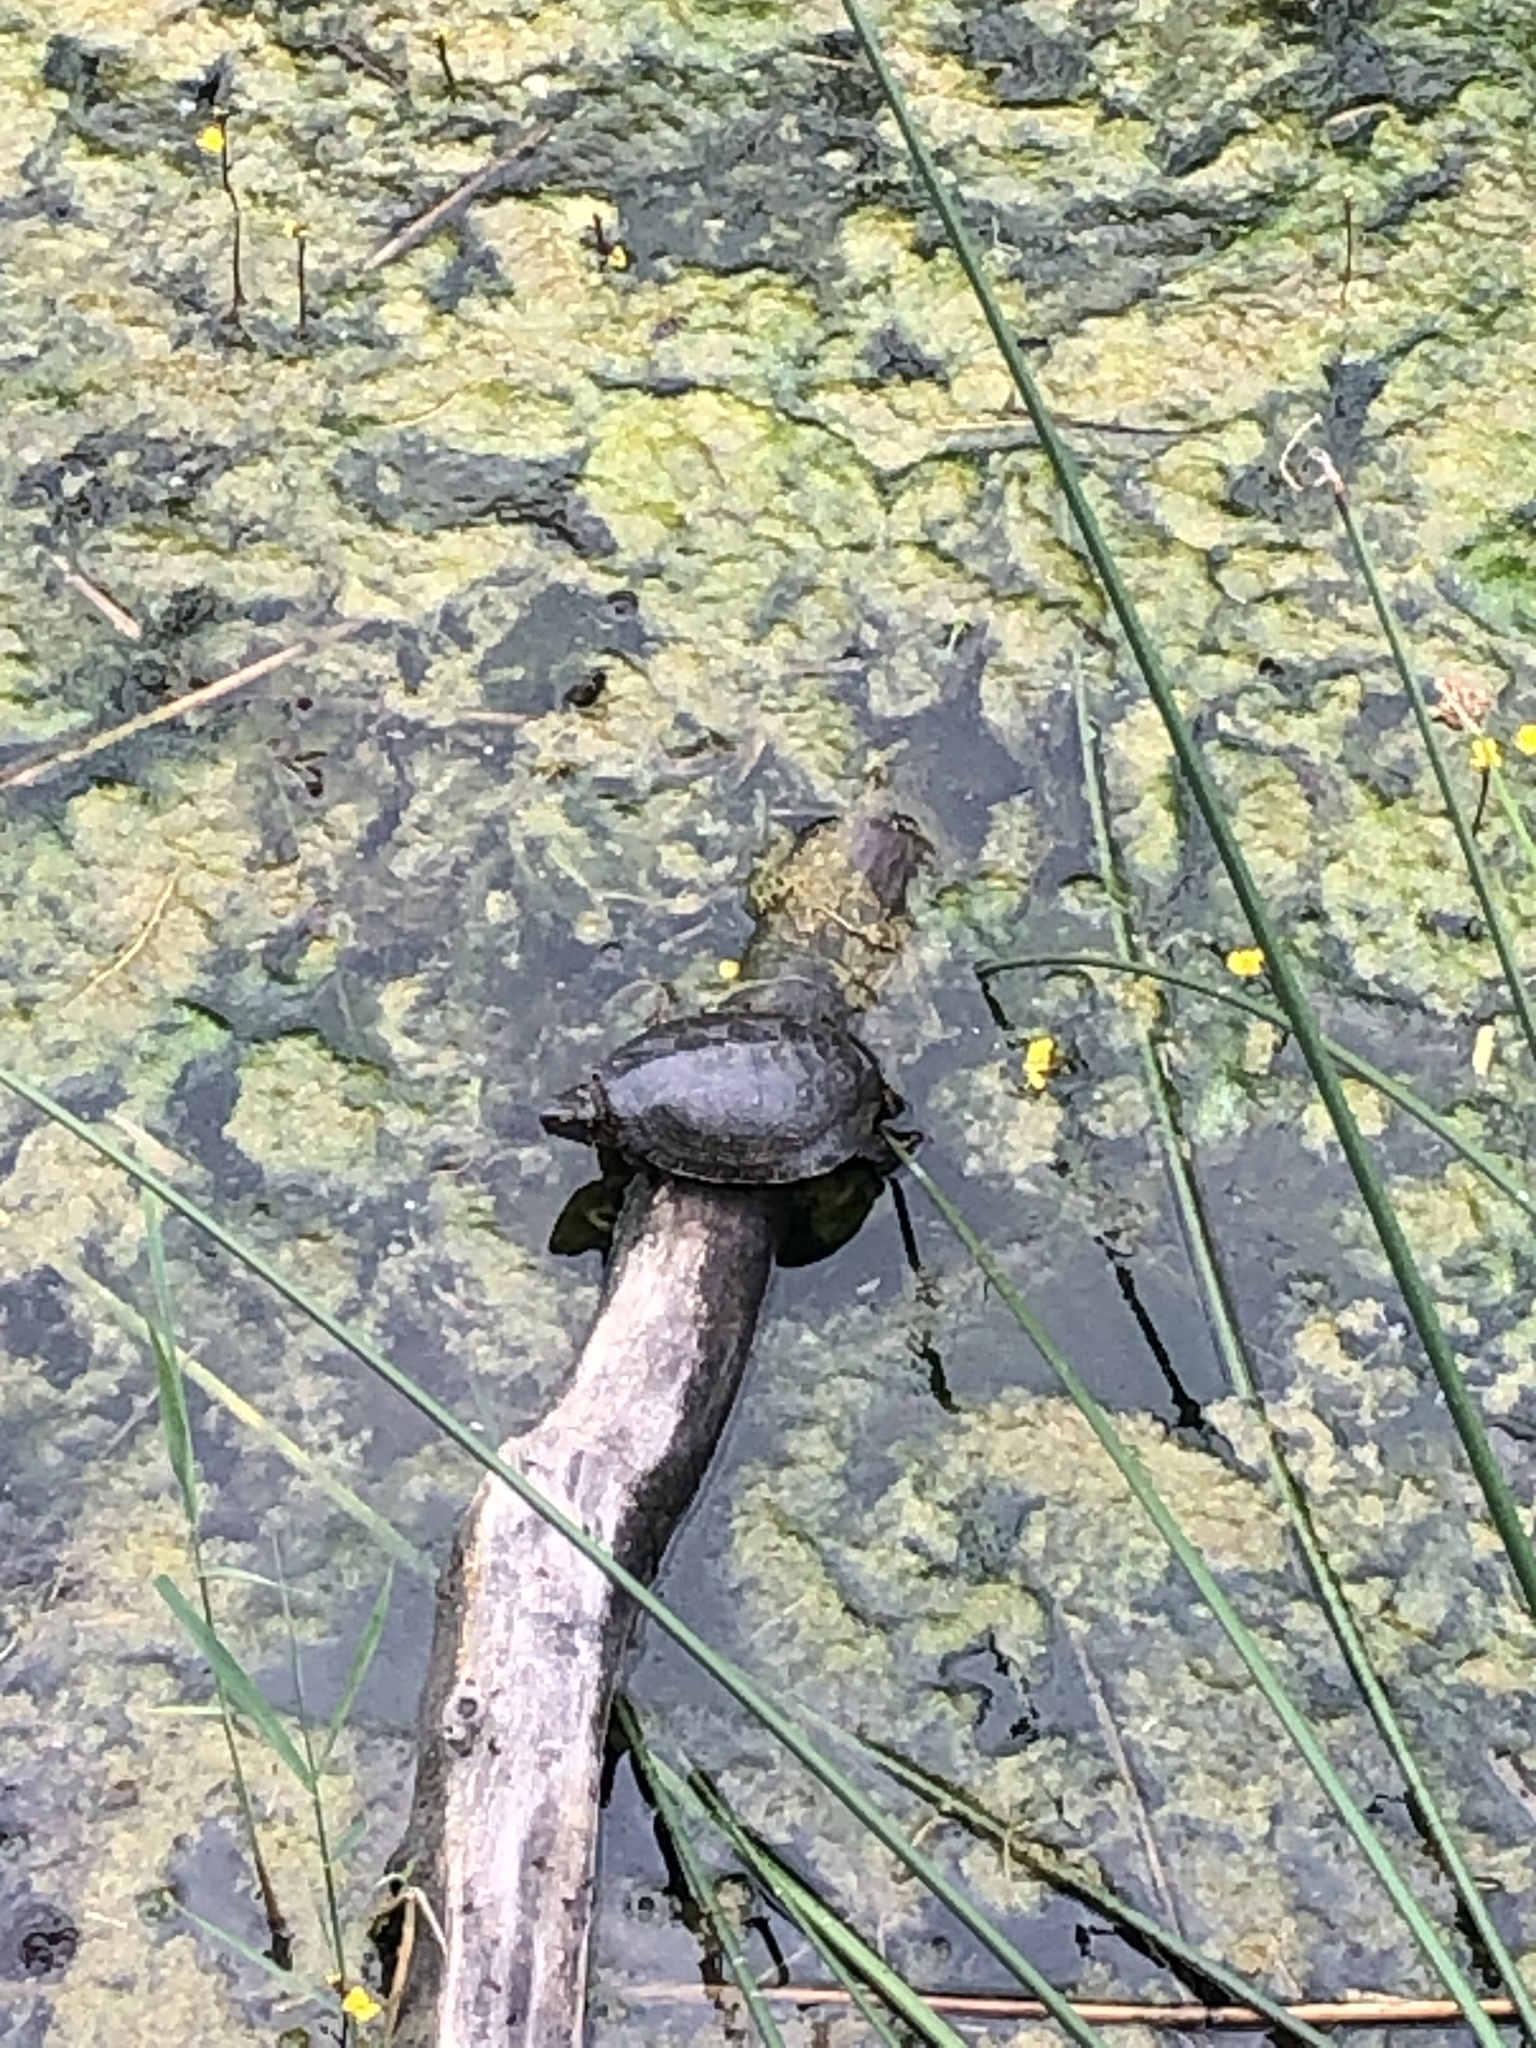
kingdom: Animalia
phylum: Chordata
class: Testudines
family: Emydidae
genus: Emys
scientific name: Emys orbicularis
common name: European pond turtle
